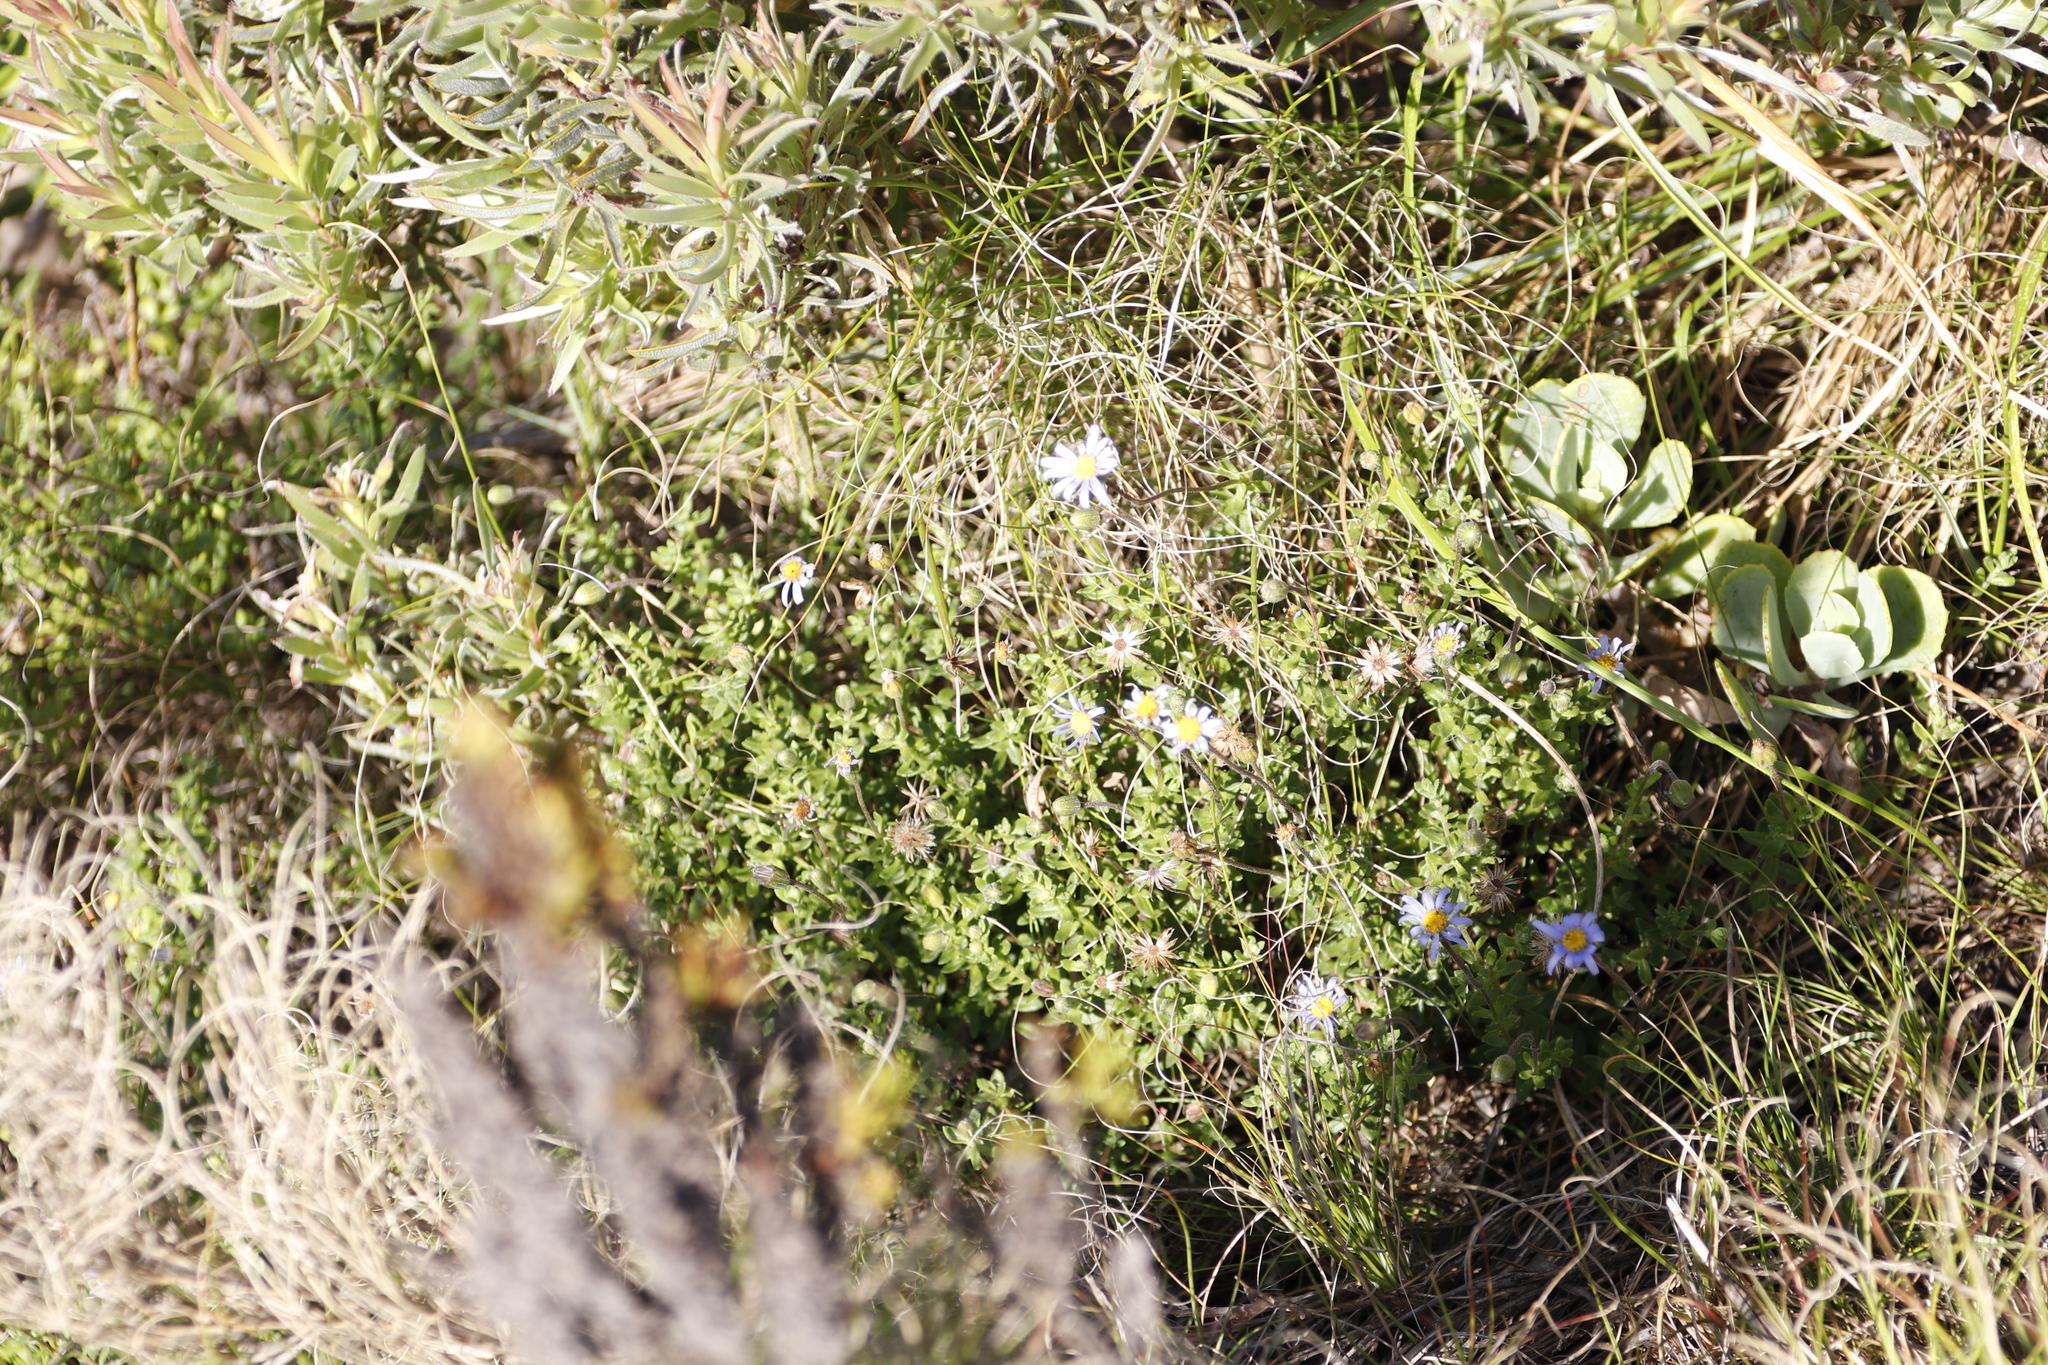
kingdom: Plantae
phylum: Tracheophyta
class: Magnoliopsida
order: Asterales
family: Asteraceae
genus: Felicia
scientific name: Felicia aethiopica
